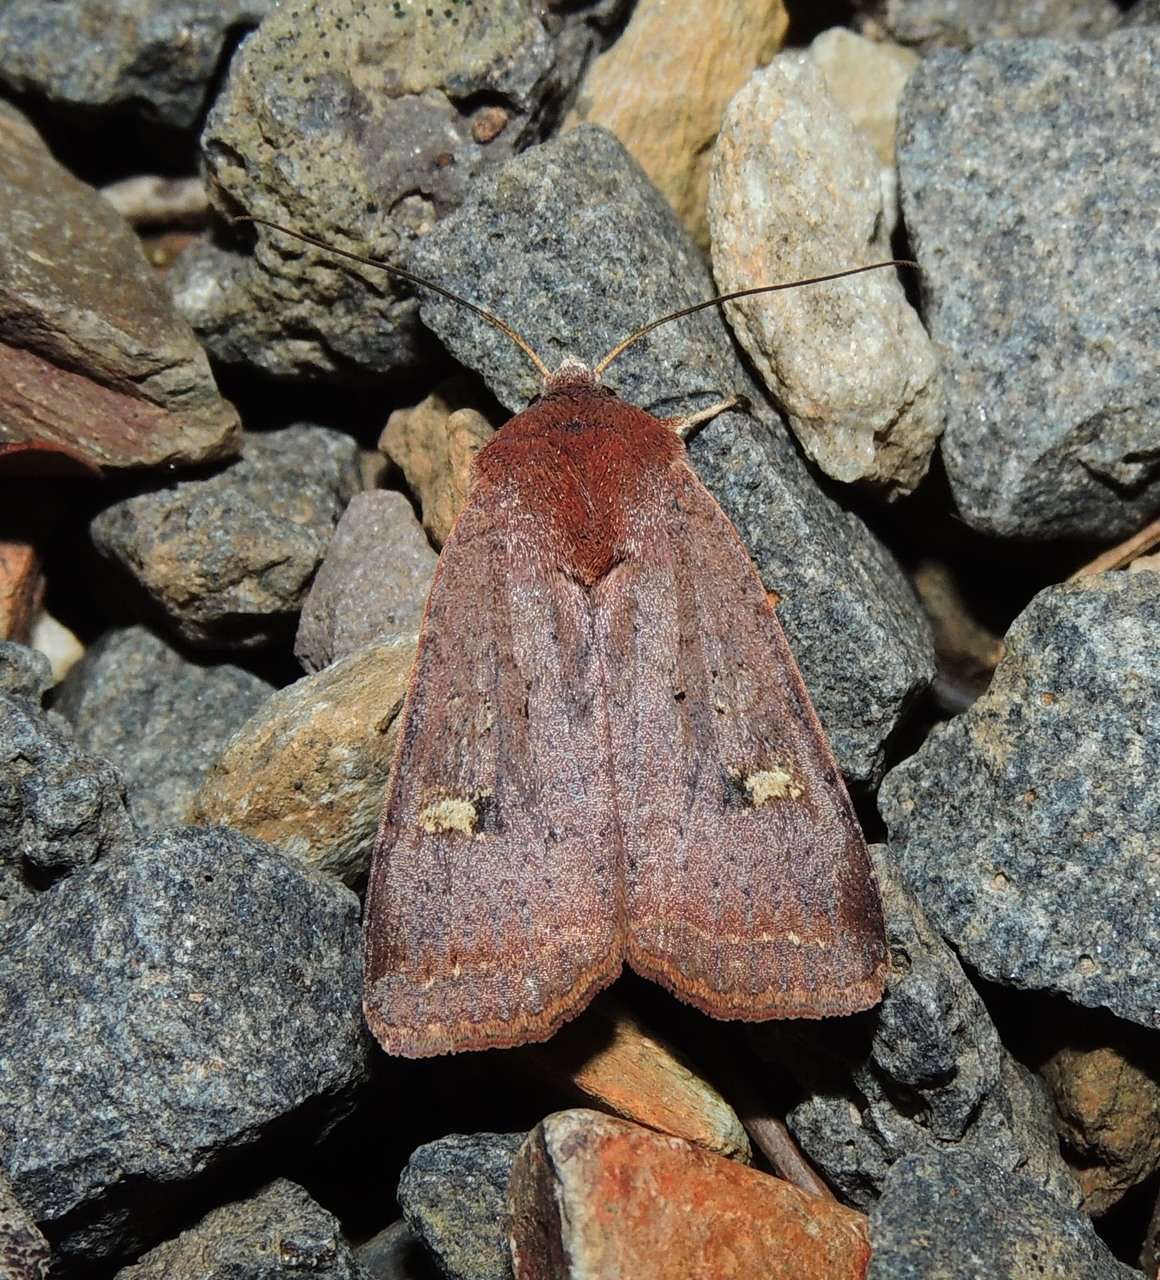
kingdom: Animalia
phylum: Arthropoda
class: Insecta
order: Lepidoptera
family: Noctuidae
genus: Diarsia
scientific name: Diarsia intermixta
